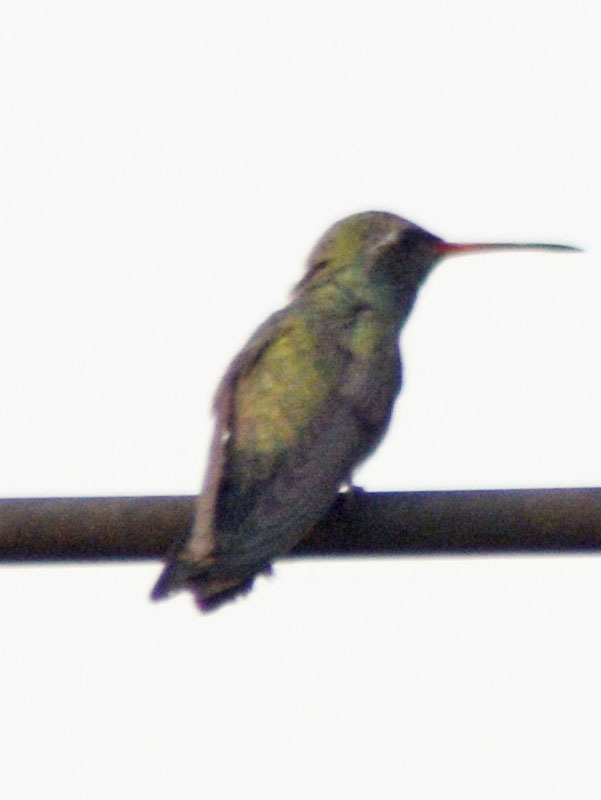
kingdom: Animalia
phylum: Chordata
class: Aves
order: Apodiformes
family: Trochilidae
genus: Cynanthus
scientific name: Cynanthus latirostris
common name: Broad-billed hummingbird
